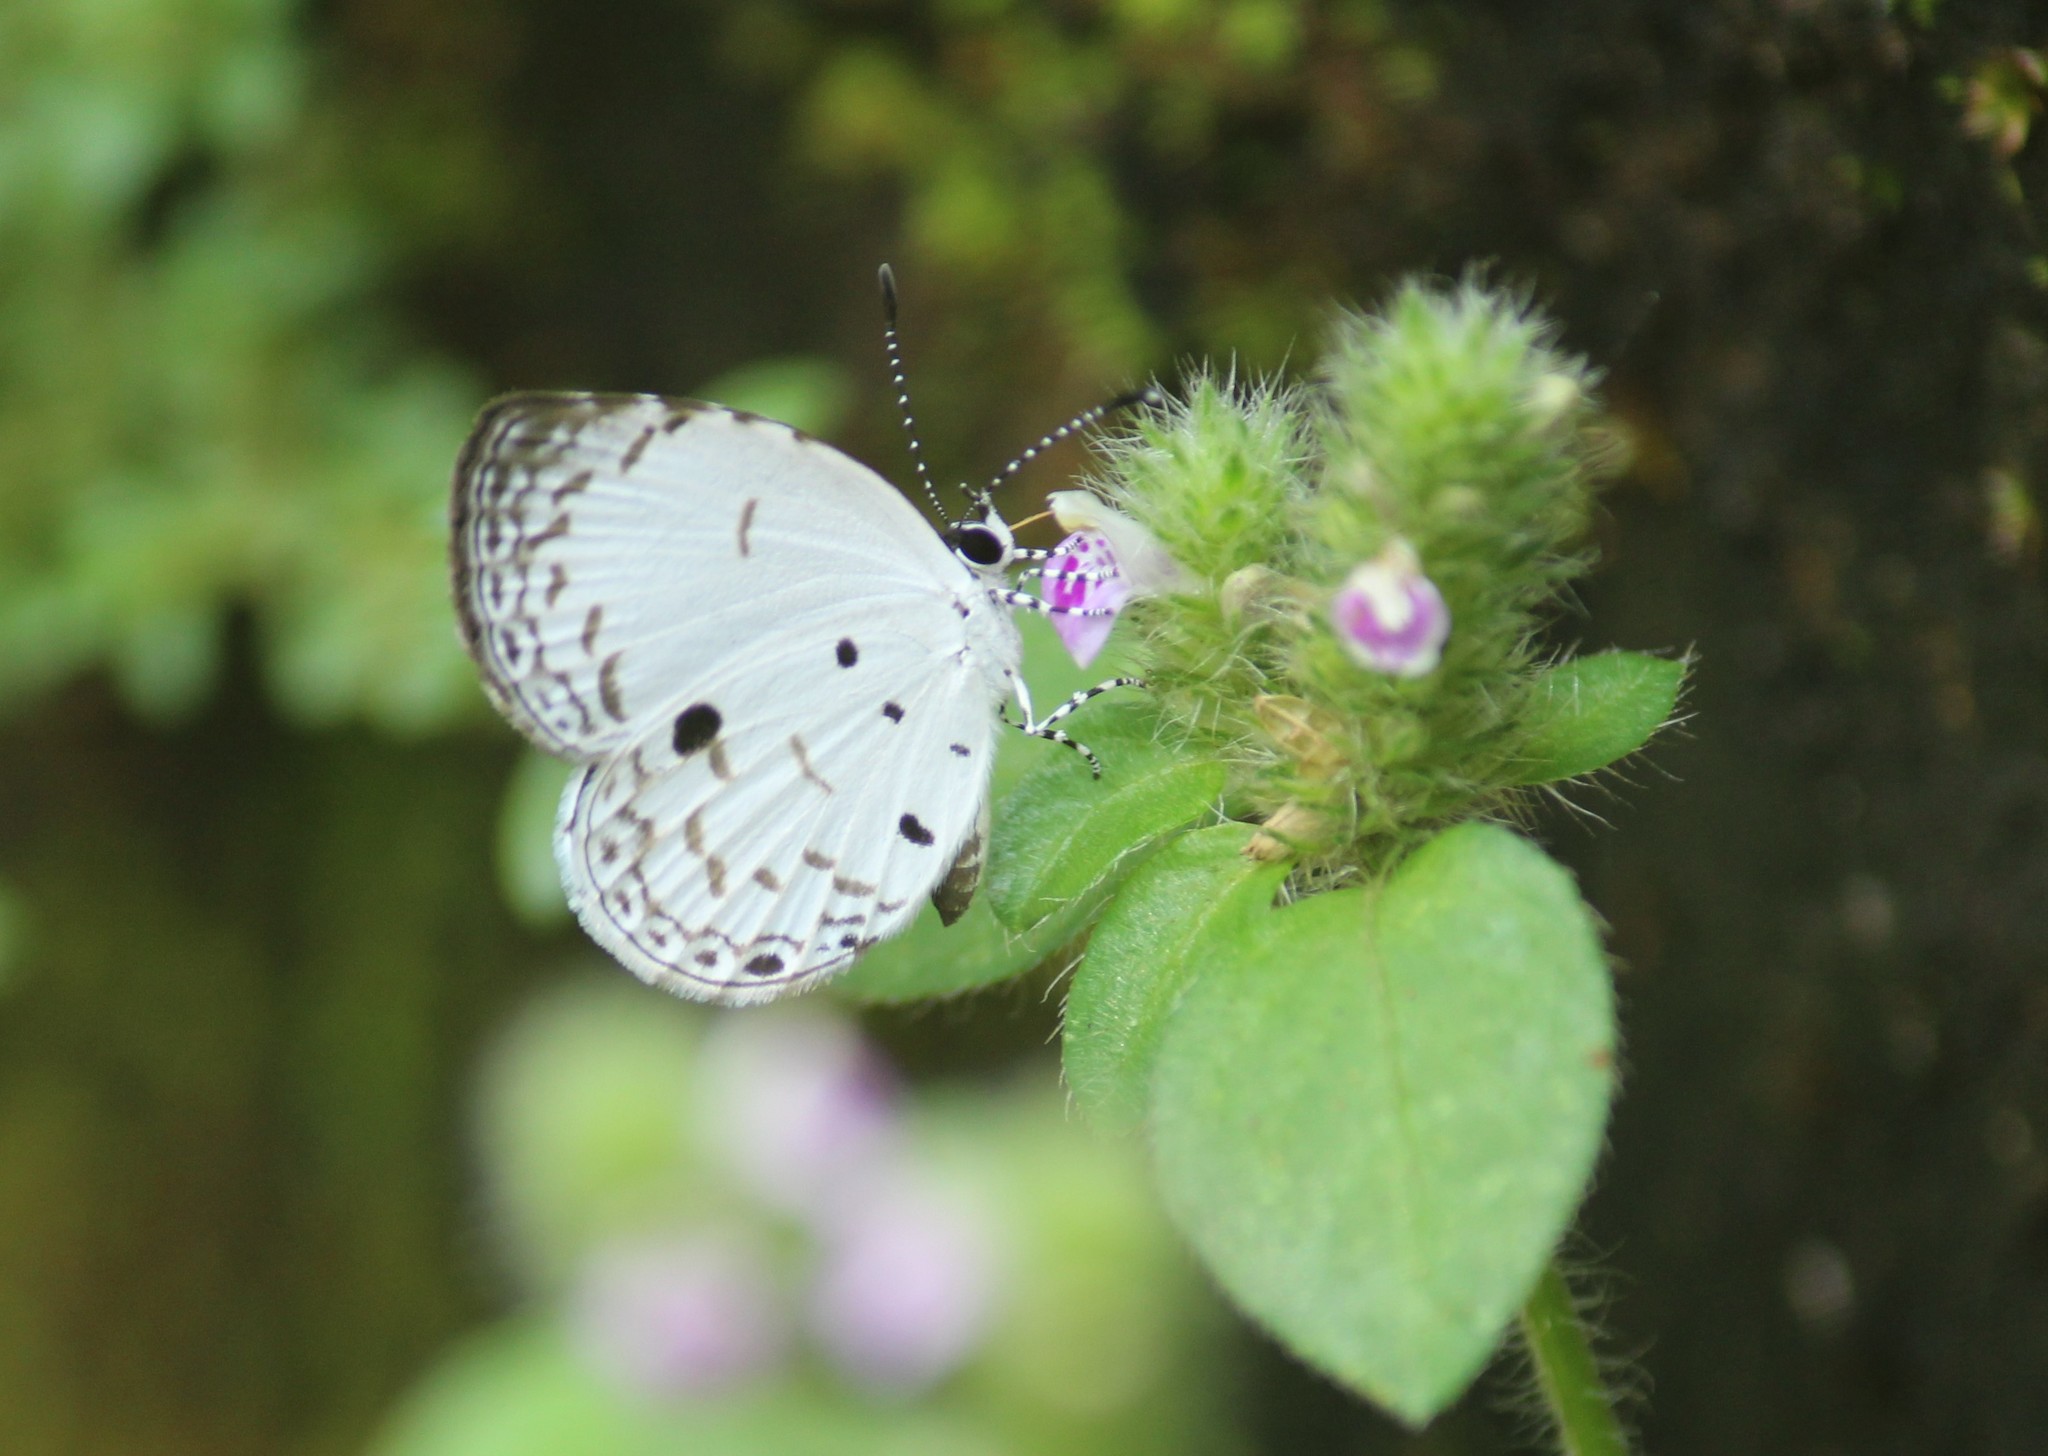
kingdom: Animalia
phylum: Arthropoda
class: Insecta
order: Lepidoptera
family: Lycaenidae
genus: Neopithecops
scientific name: Neopithecops zalmora
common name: Quaker
